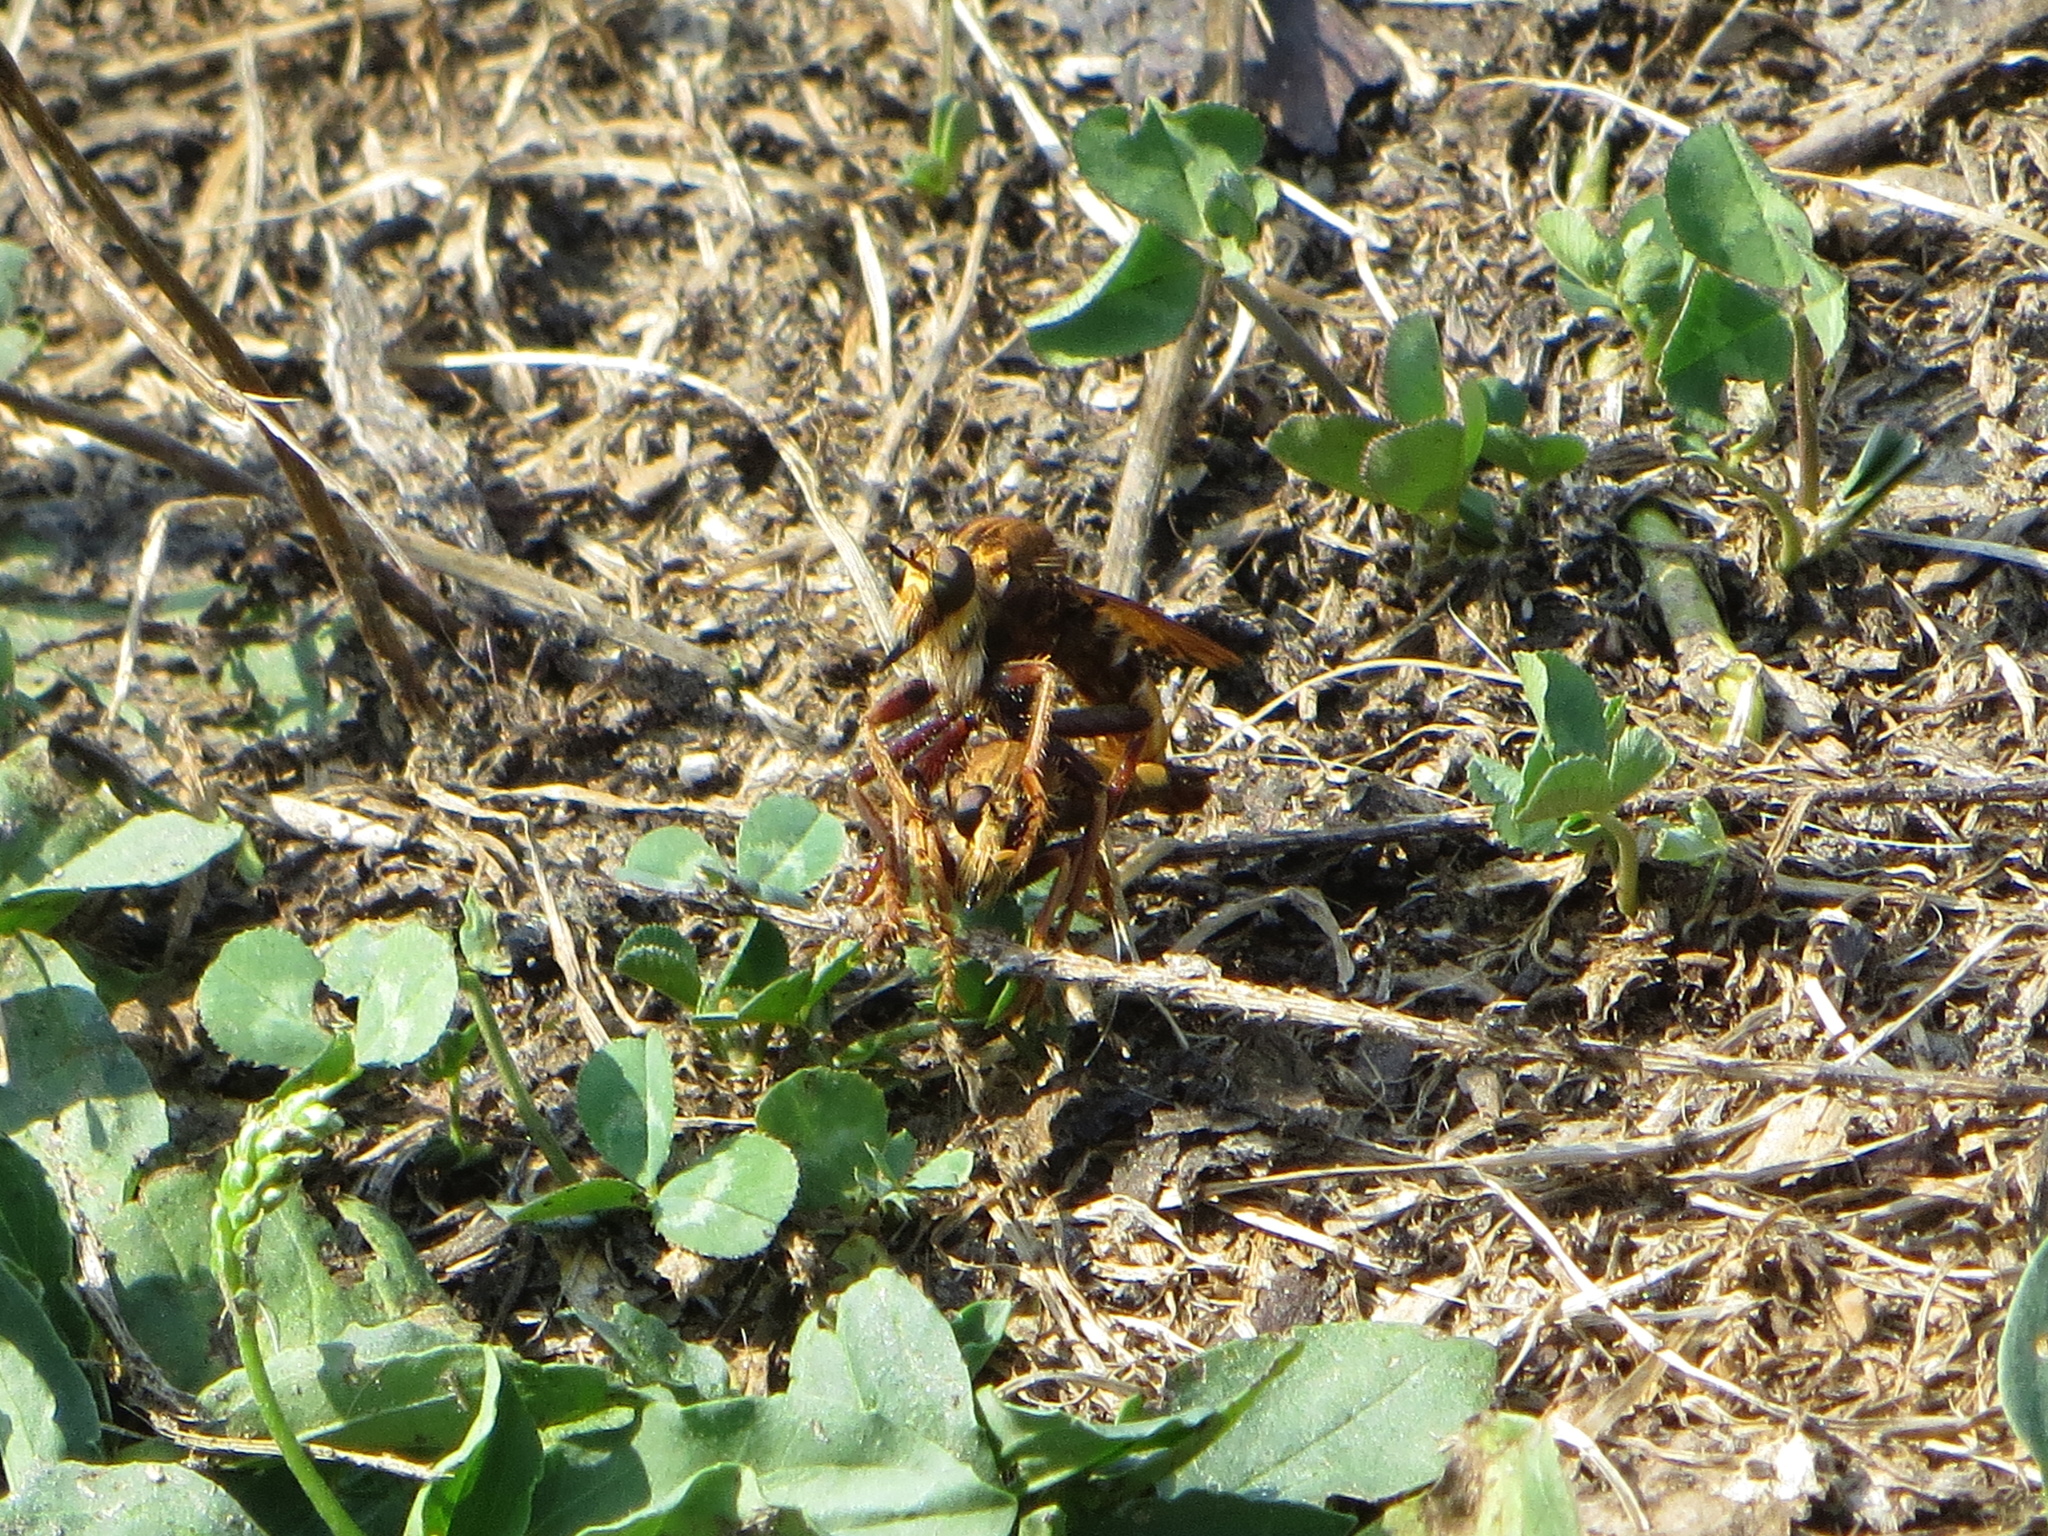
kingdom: Animalia
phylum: Arthropoda
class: Insecta
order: Diptera
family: Asilidae
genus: Asilus
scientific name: Asilus crabroniformis
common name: Hornet robberfly
